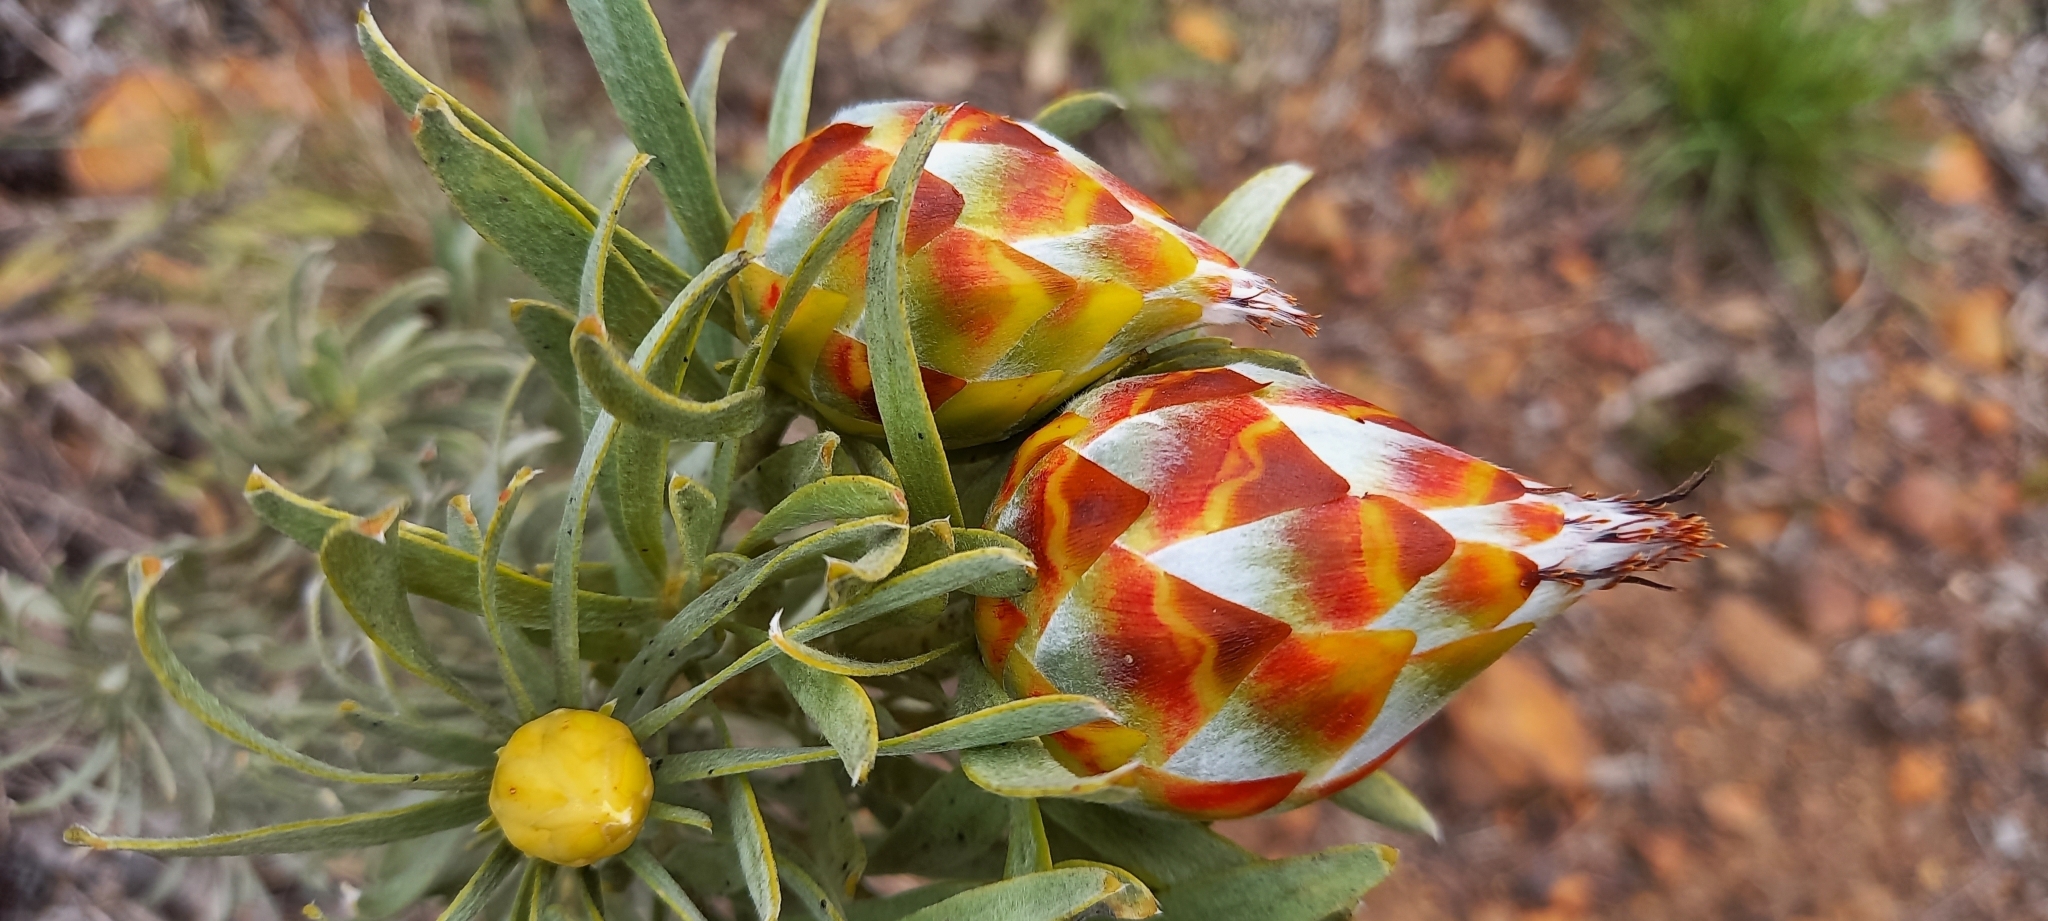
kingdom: Plantae
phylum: Tracheophyta
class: Magnoliopsida
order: Proteales
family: Proteaceae
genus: Leucadendron
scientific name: Leucadendron rubrum
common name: Spinning top
